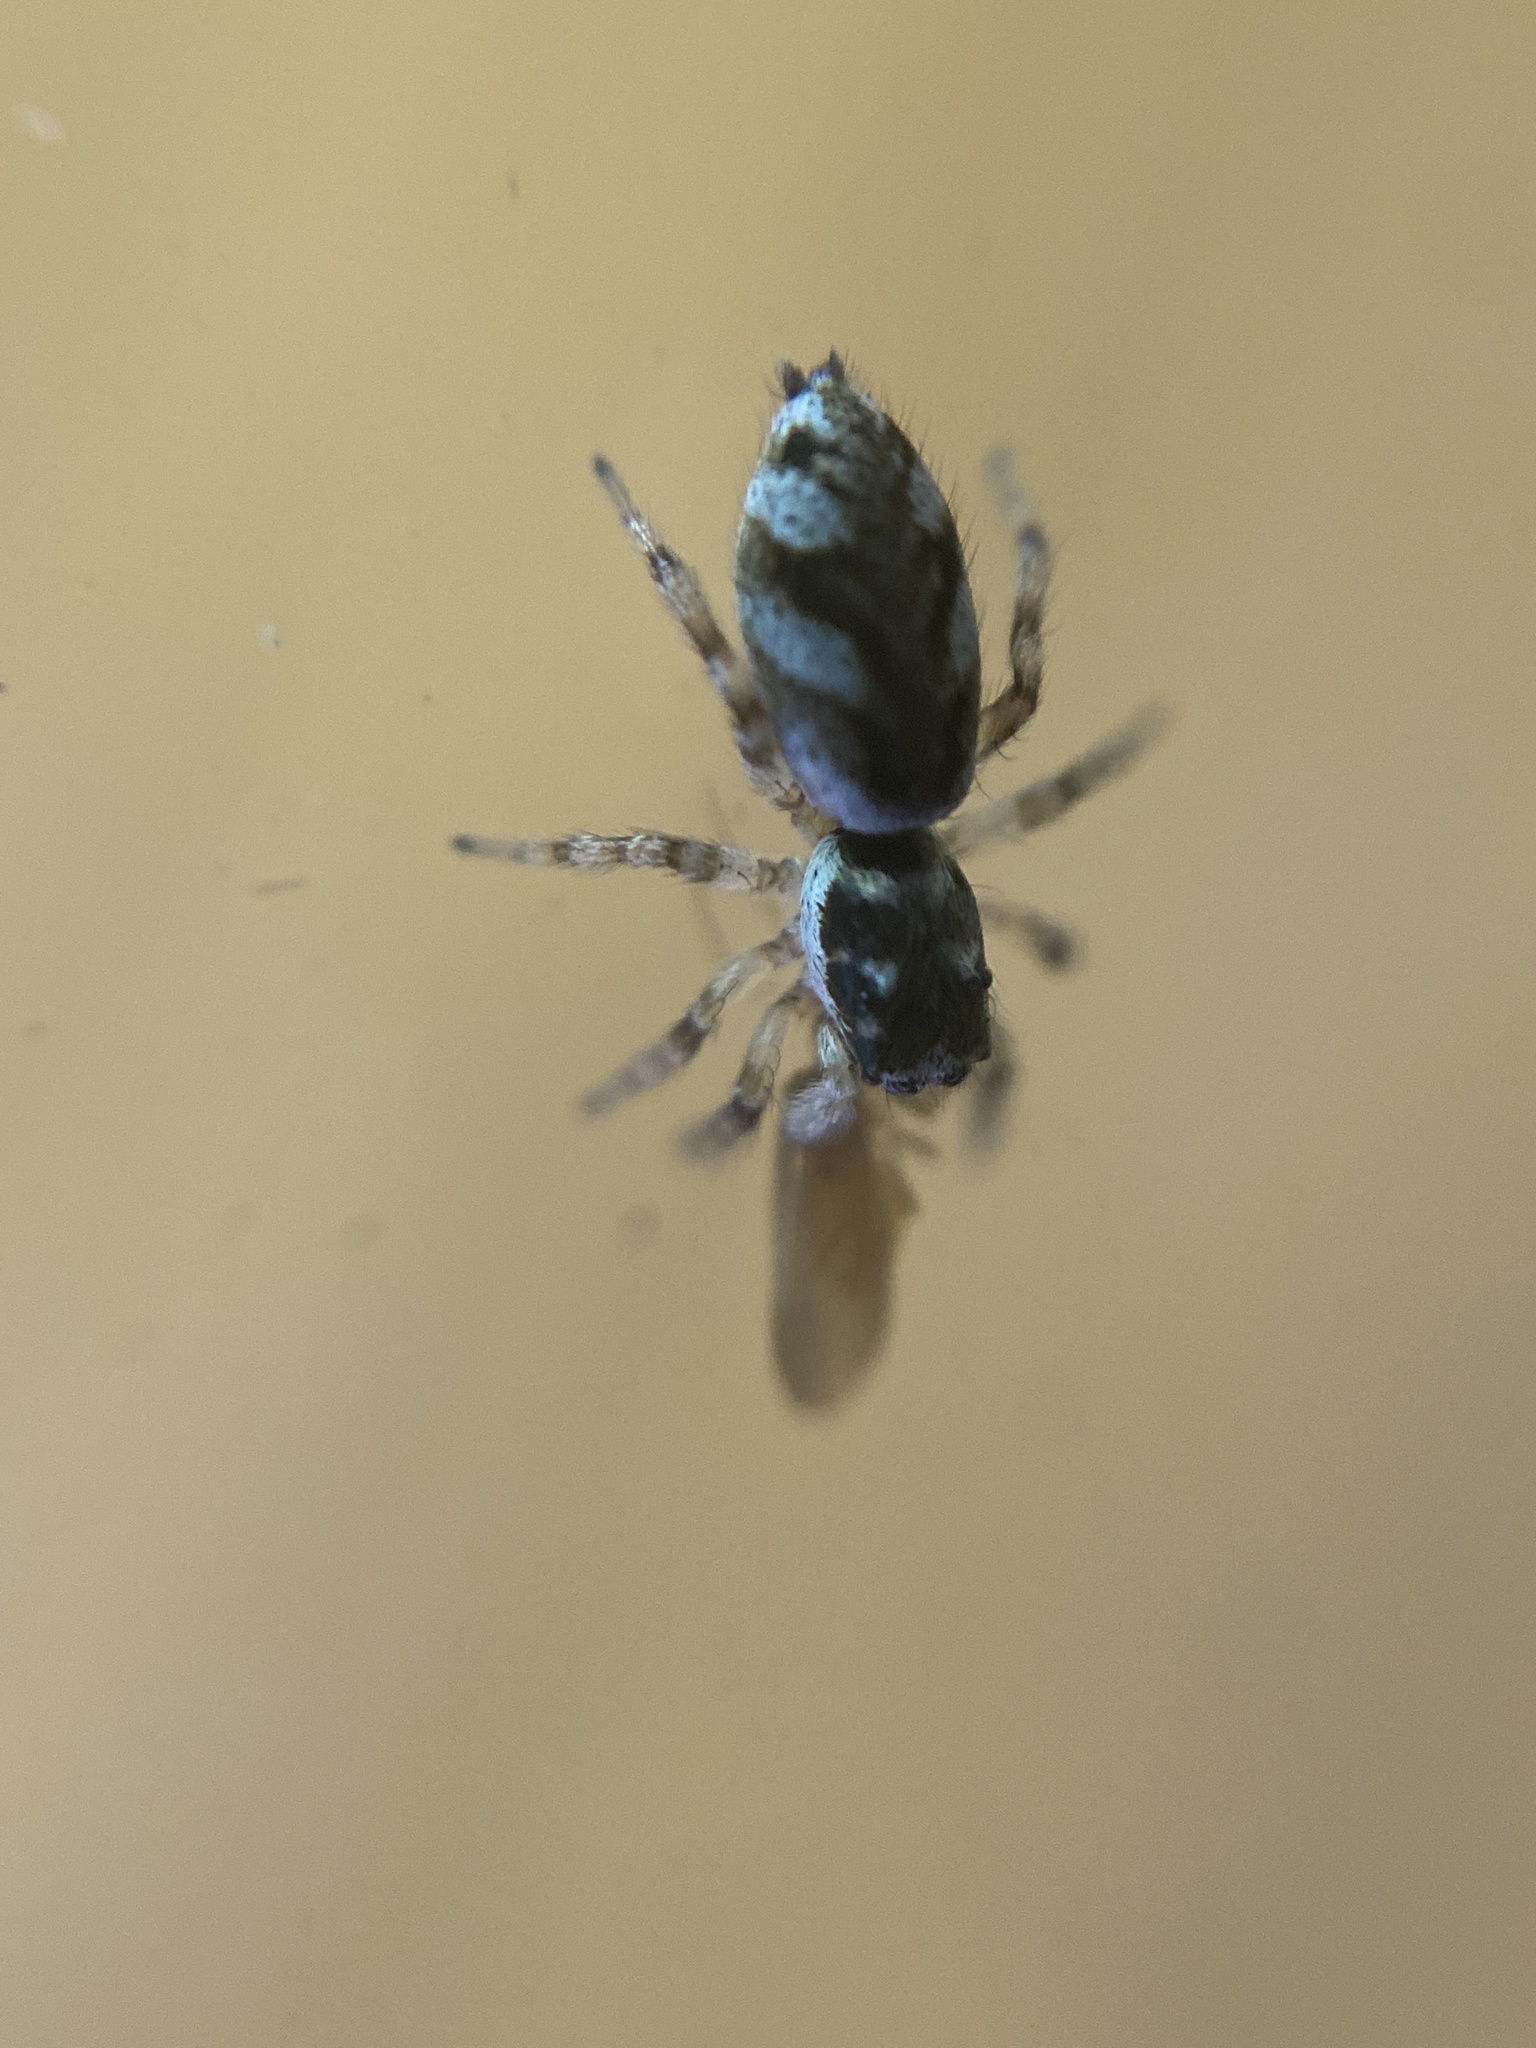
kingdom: Animalia
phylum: Arthropoda
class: Arachnida
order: Araneae
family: Salticidae
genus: Salticus
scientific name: Salticus scenicus
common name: Zebra jumper
